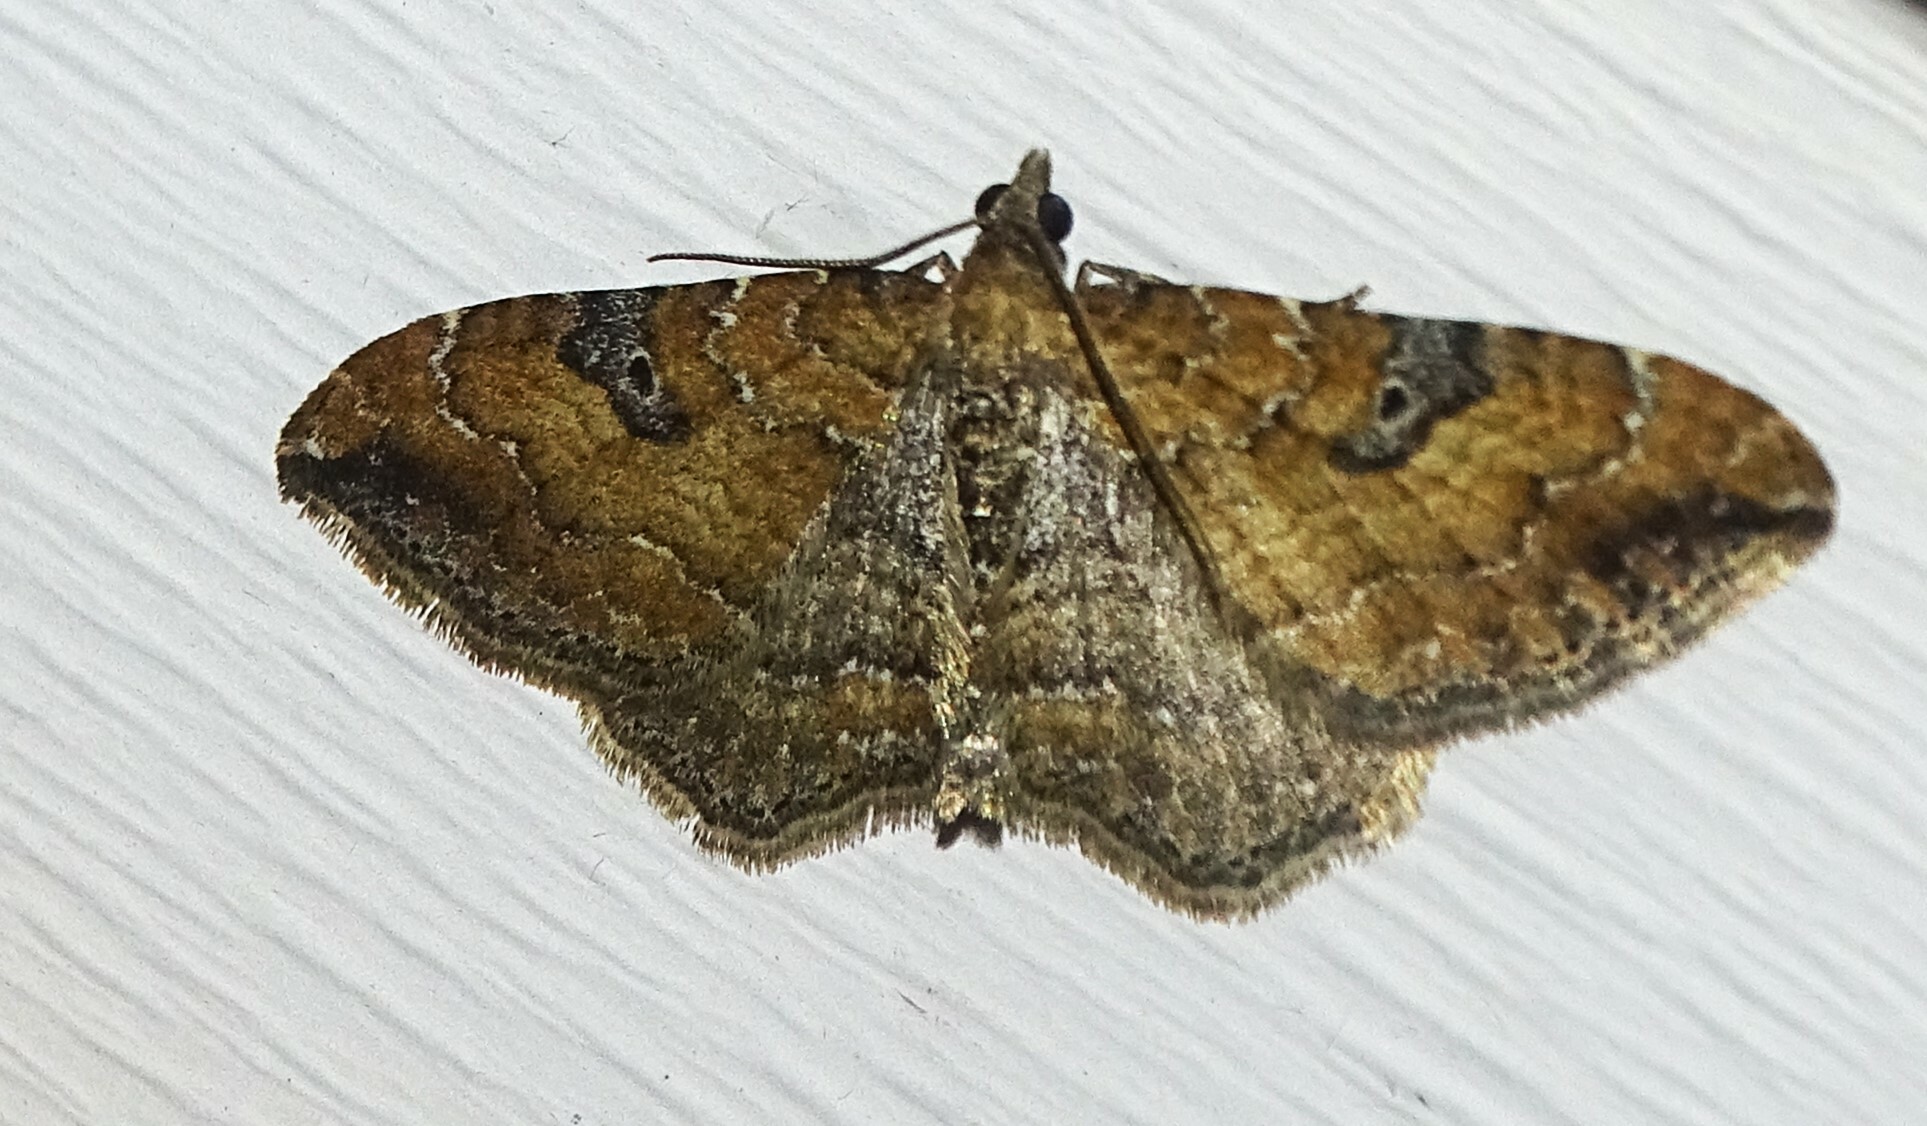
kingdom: Animalia
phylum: Arthropoda
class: Insecta
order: Lepidoptera
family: Geometridae
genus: Orthonama
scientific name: Orthonama obstipata
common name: The gem
